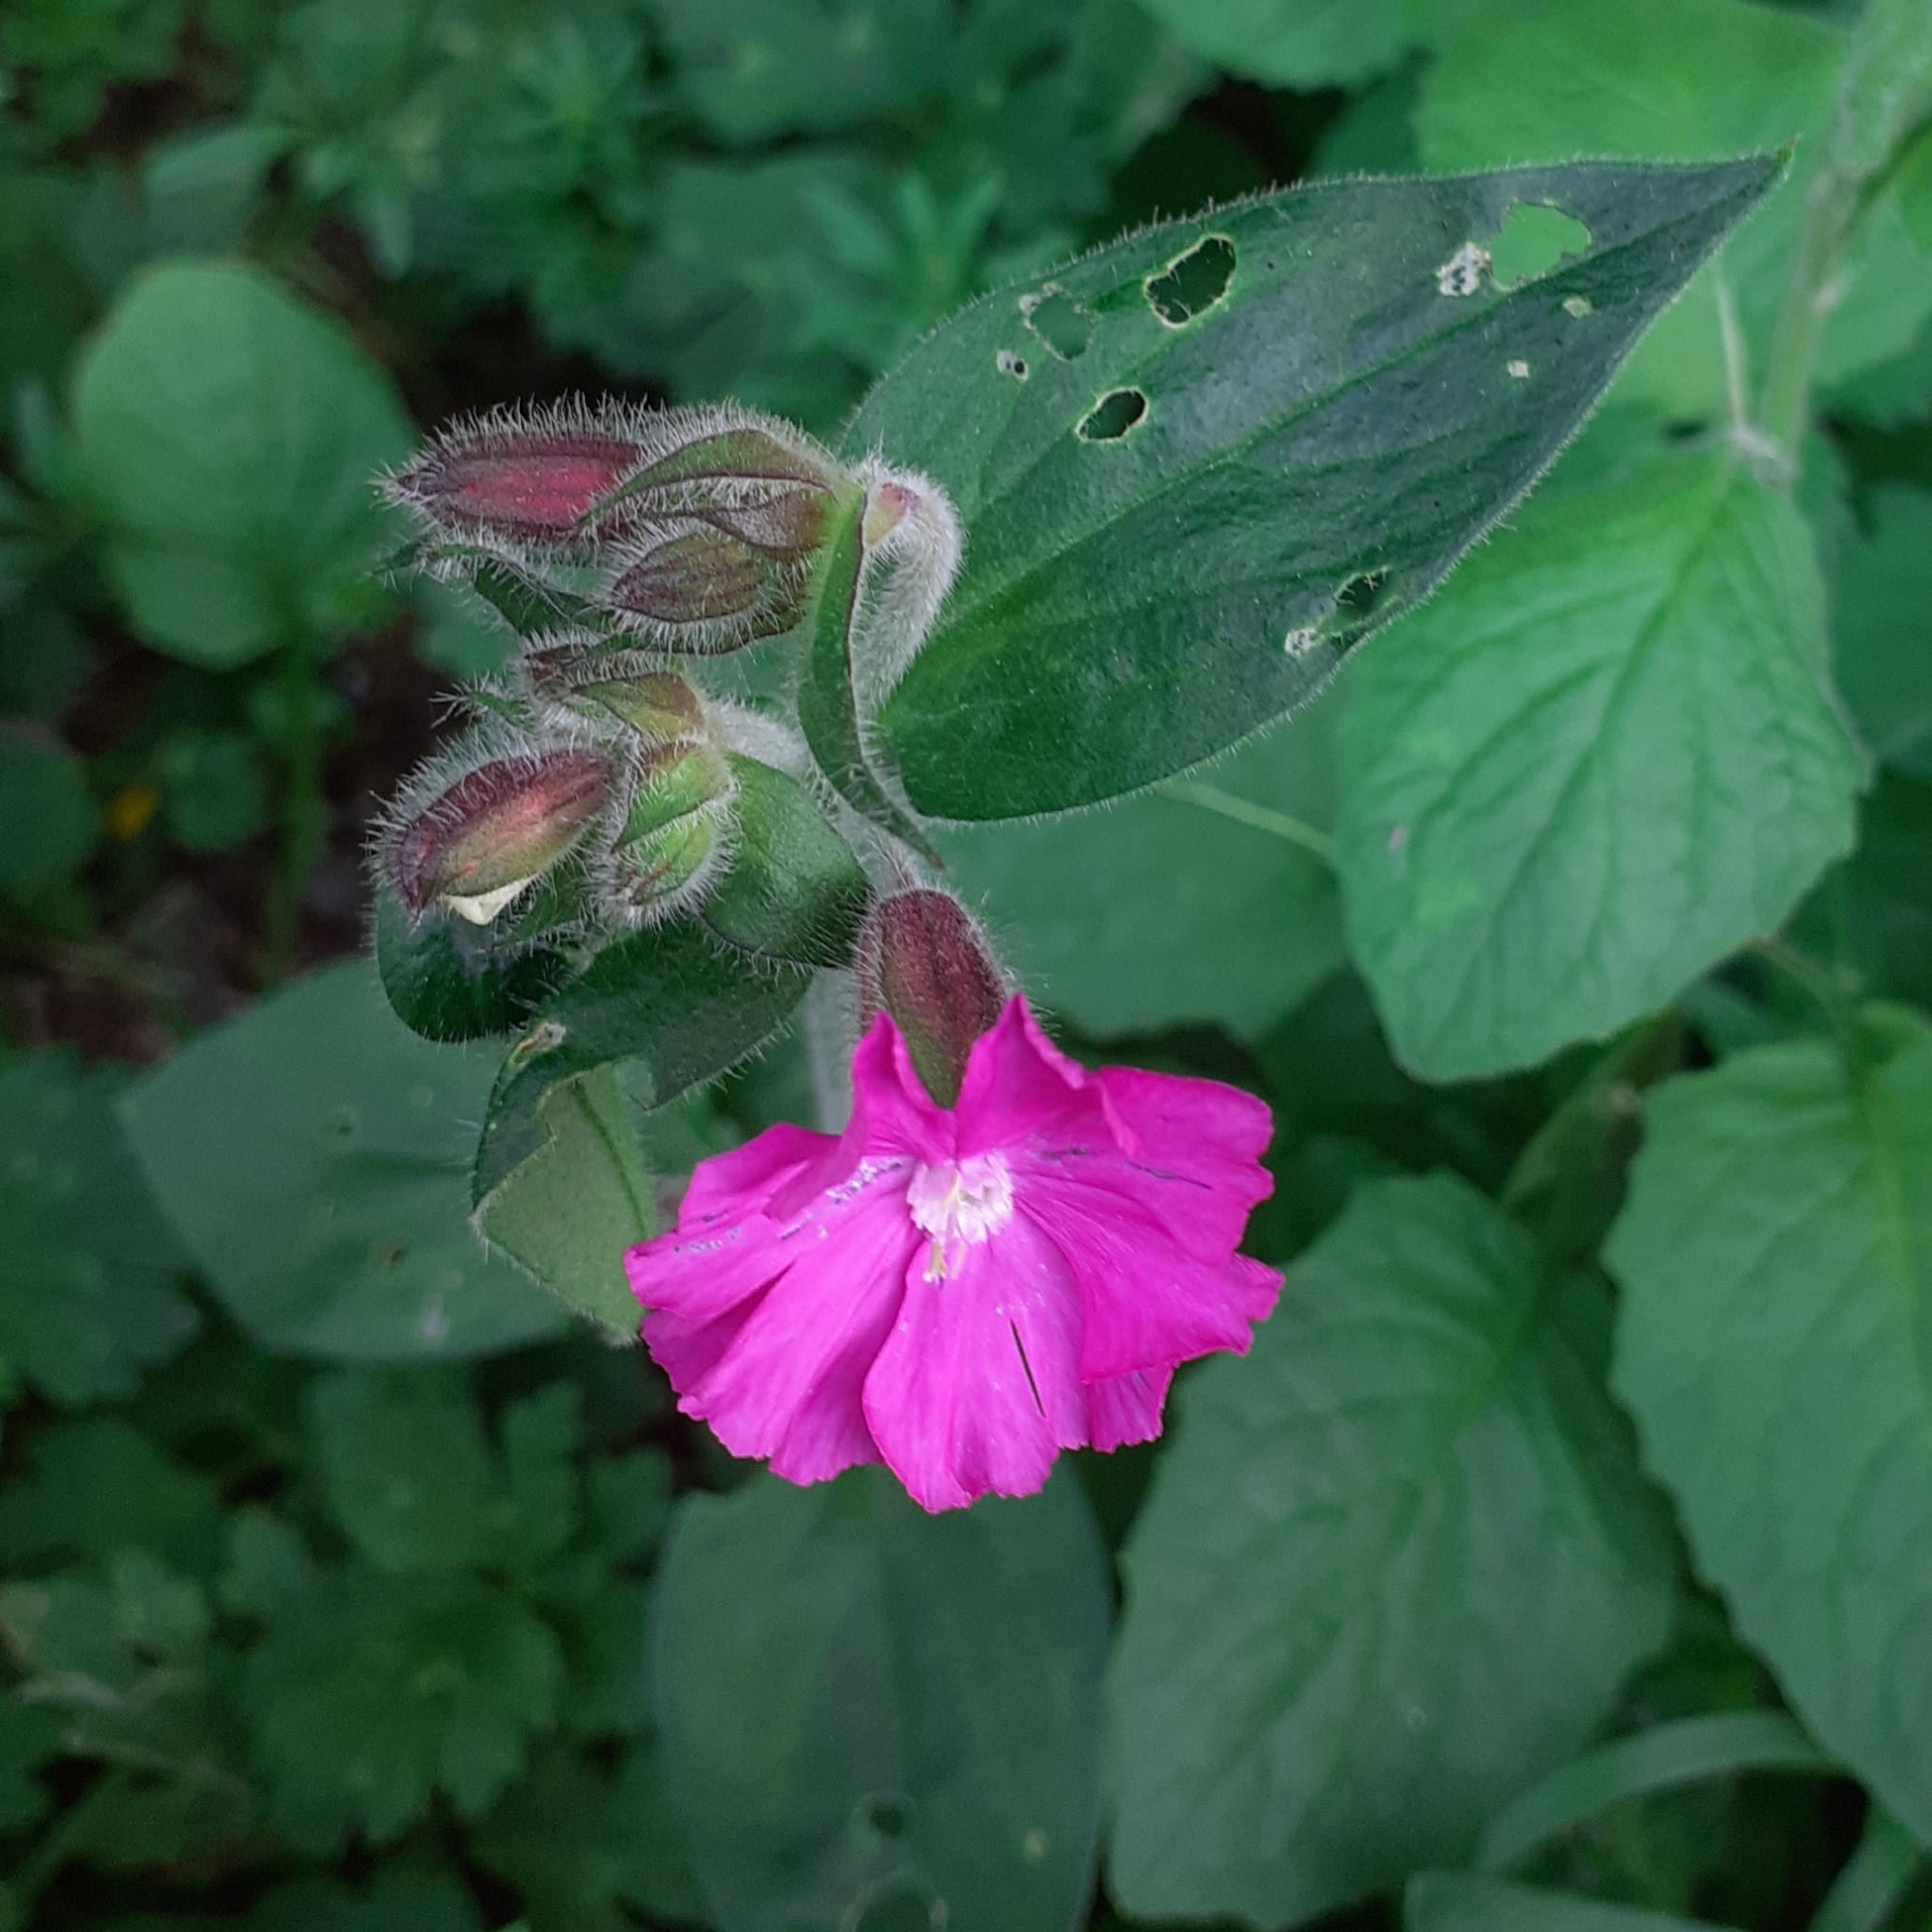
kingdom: Plantae
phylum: Tracheophyta
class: Magnoliopsida
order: Caryophyllales
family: Caryophyllaceae
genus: Silene
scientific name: Silene dioica
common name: Red campion
